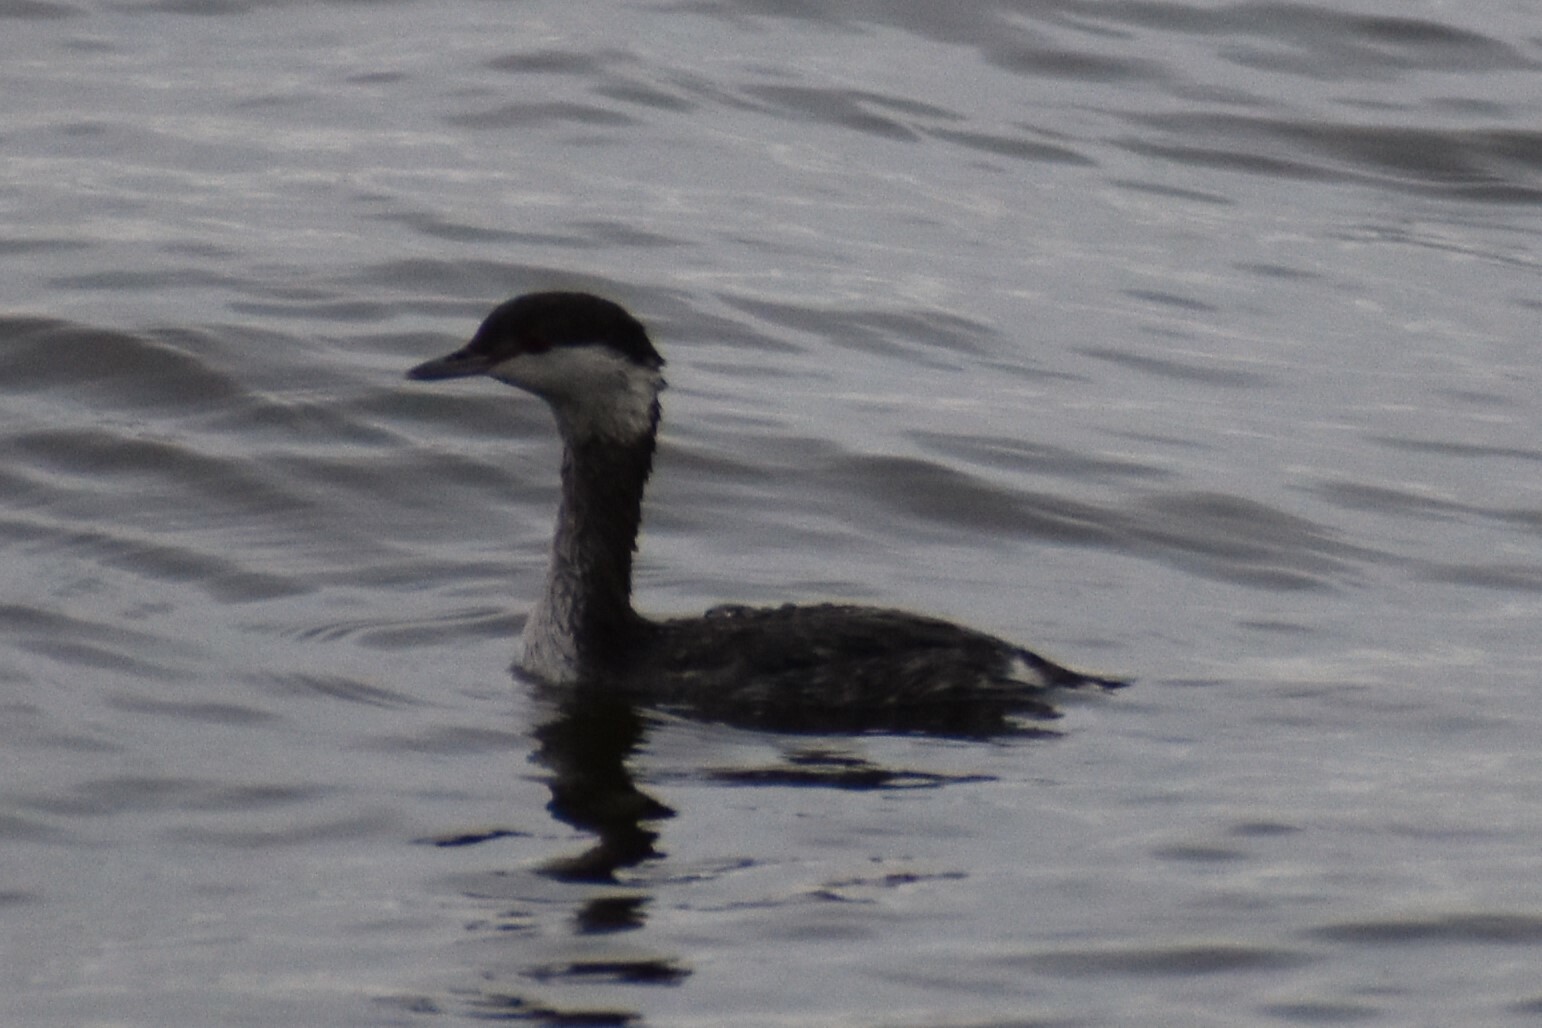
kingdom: Animalia
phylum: Chordata
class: Aves
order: Podicipediformes
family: Podicipedidae
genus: Podiceps
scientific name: Podiceps auritus
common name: Horned grebe
